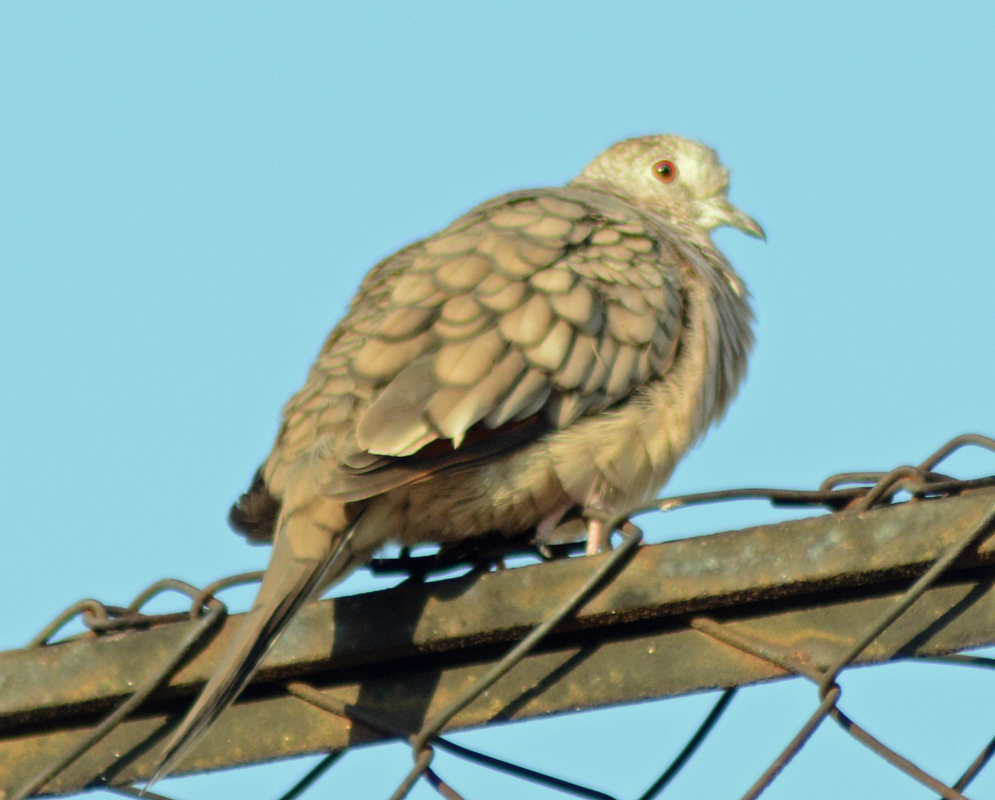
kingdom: Animalia
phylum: Chordata
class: Aves
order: Columbiformes
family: Columbidae
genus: Columbina
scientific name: Columbina inca
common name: Inca dove
